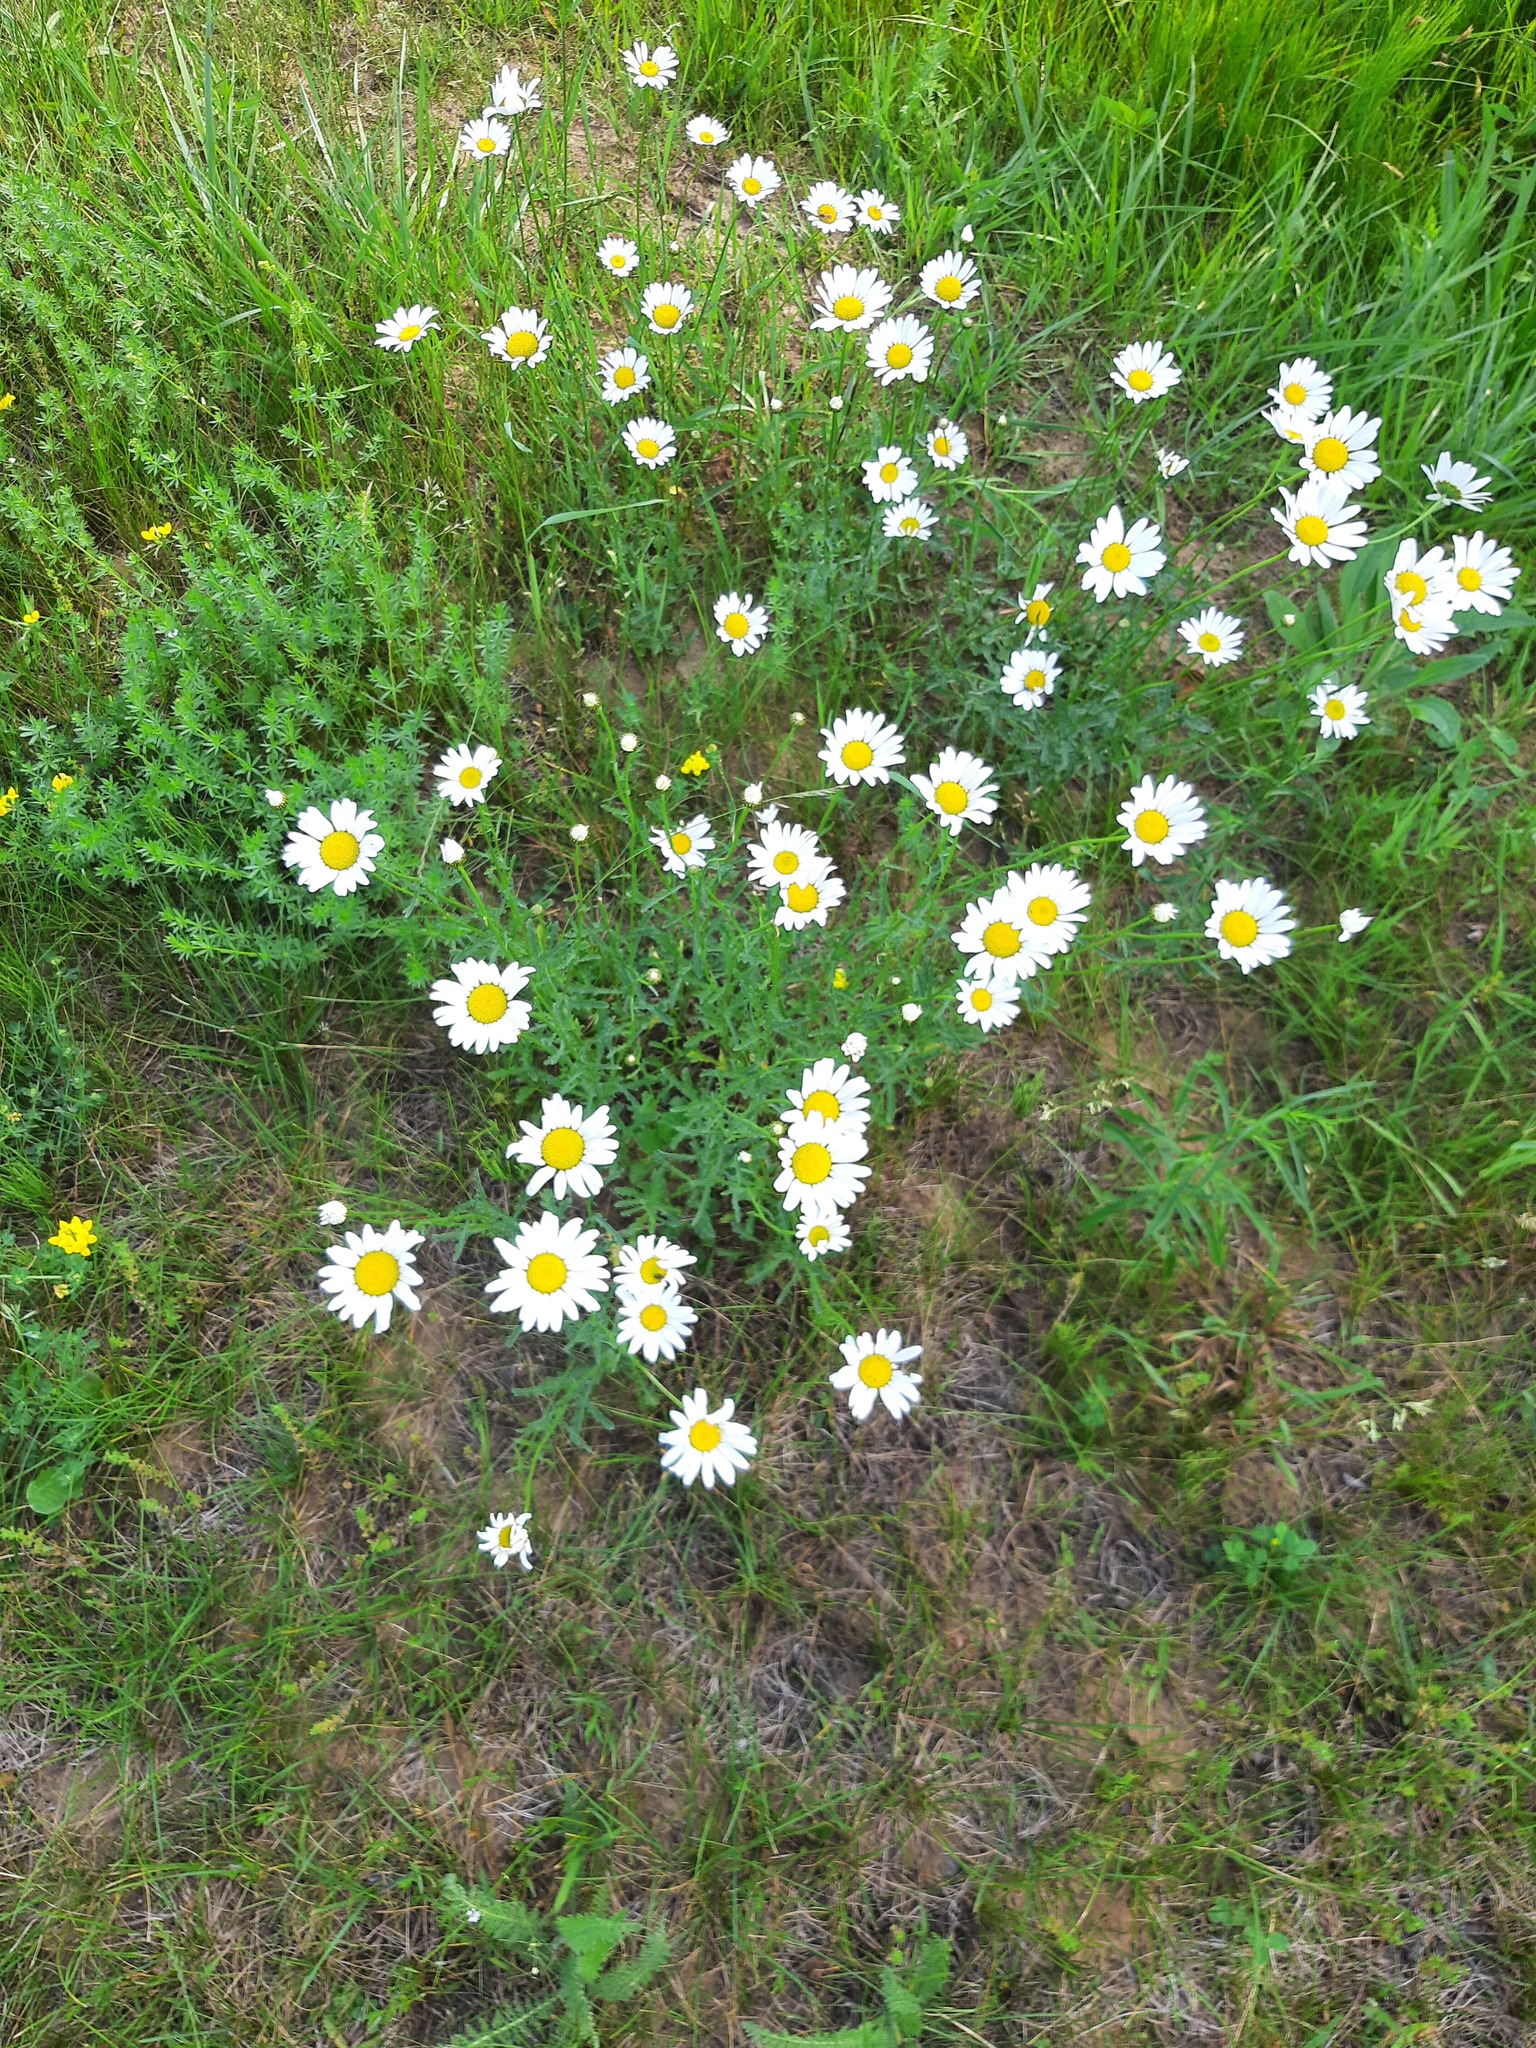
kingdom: Plantae
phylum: Tracheophyta
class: Magnoliopsida
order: Asterales
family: Asteraceae
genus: Leucanthemum
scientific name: Leucanthemum vulgare
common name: Oxeye daisy
